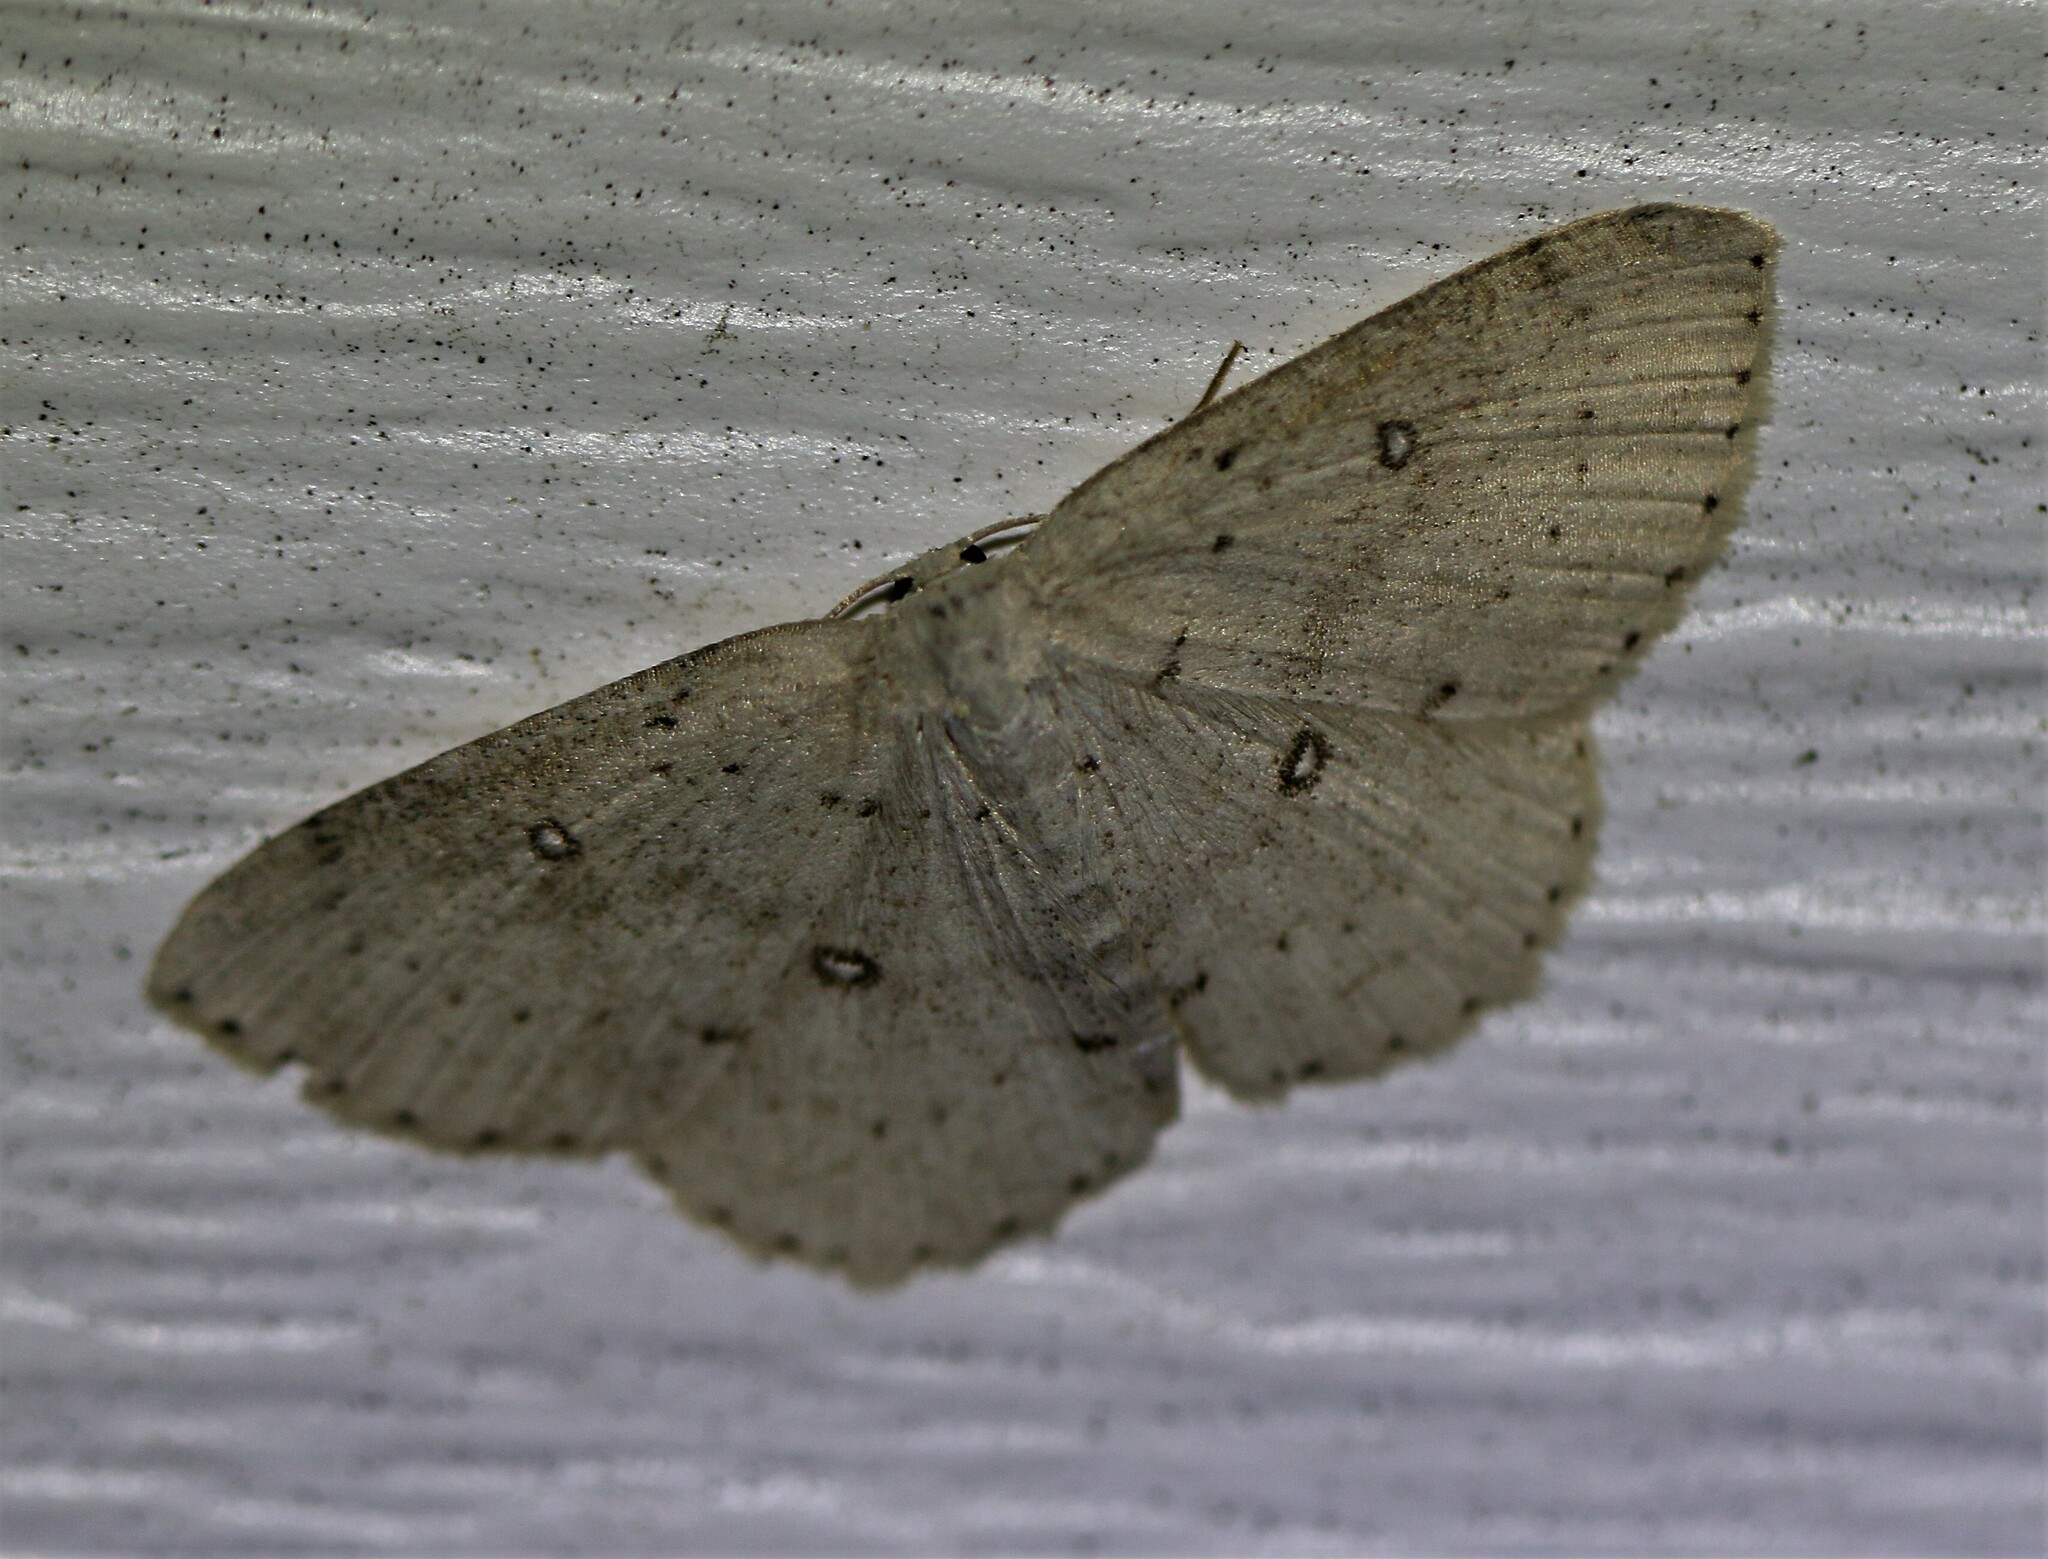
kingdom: Animalia
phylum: Arthropoda
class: Insecta
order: Lepidoptera
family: Geometridae
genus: Cyclophora
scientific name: Cyclophora pendulinaria
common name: Sweet fern geometer
